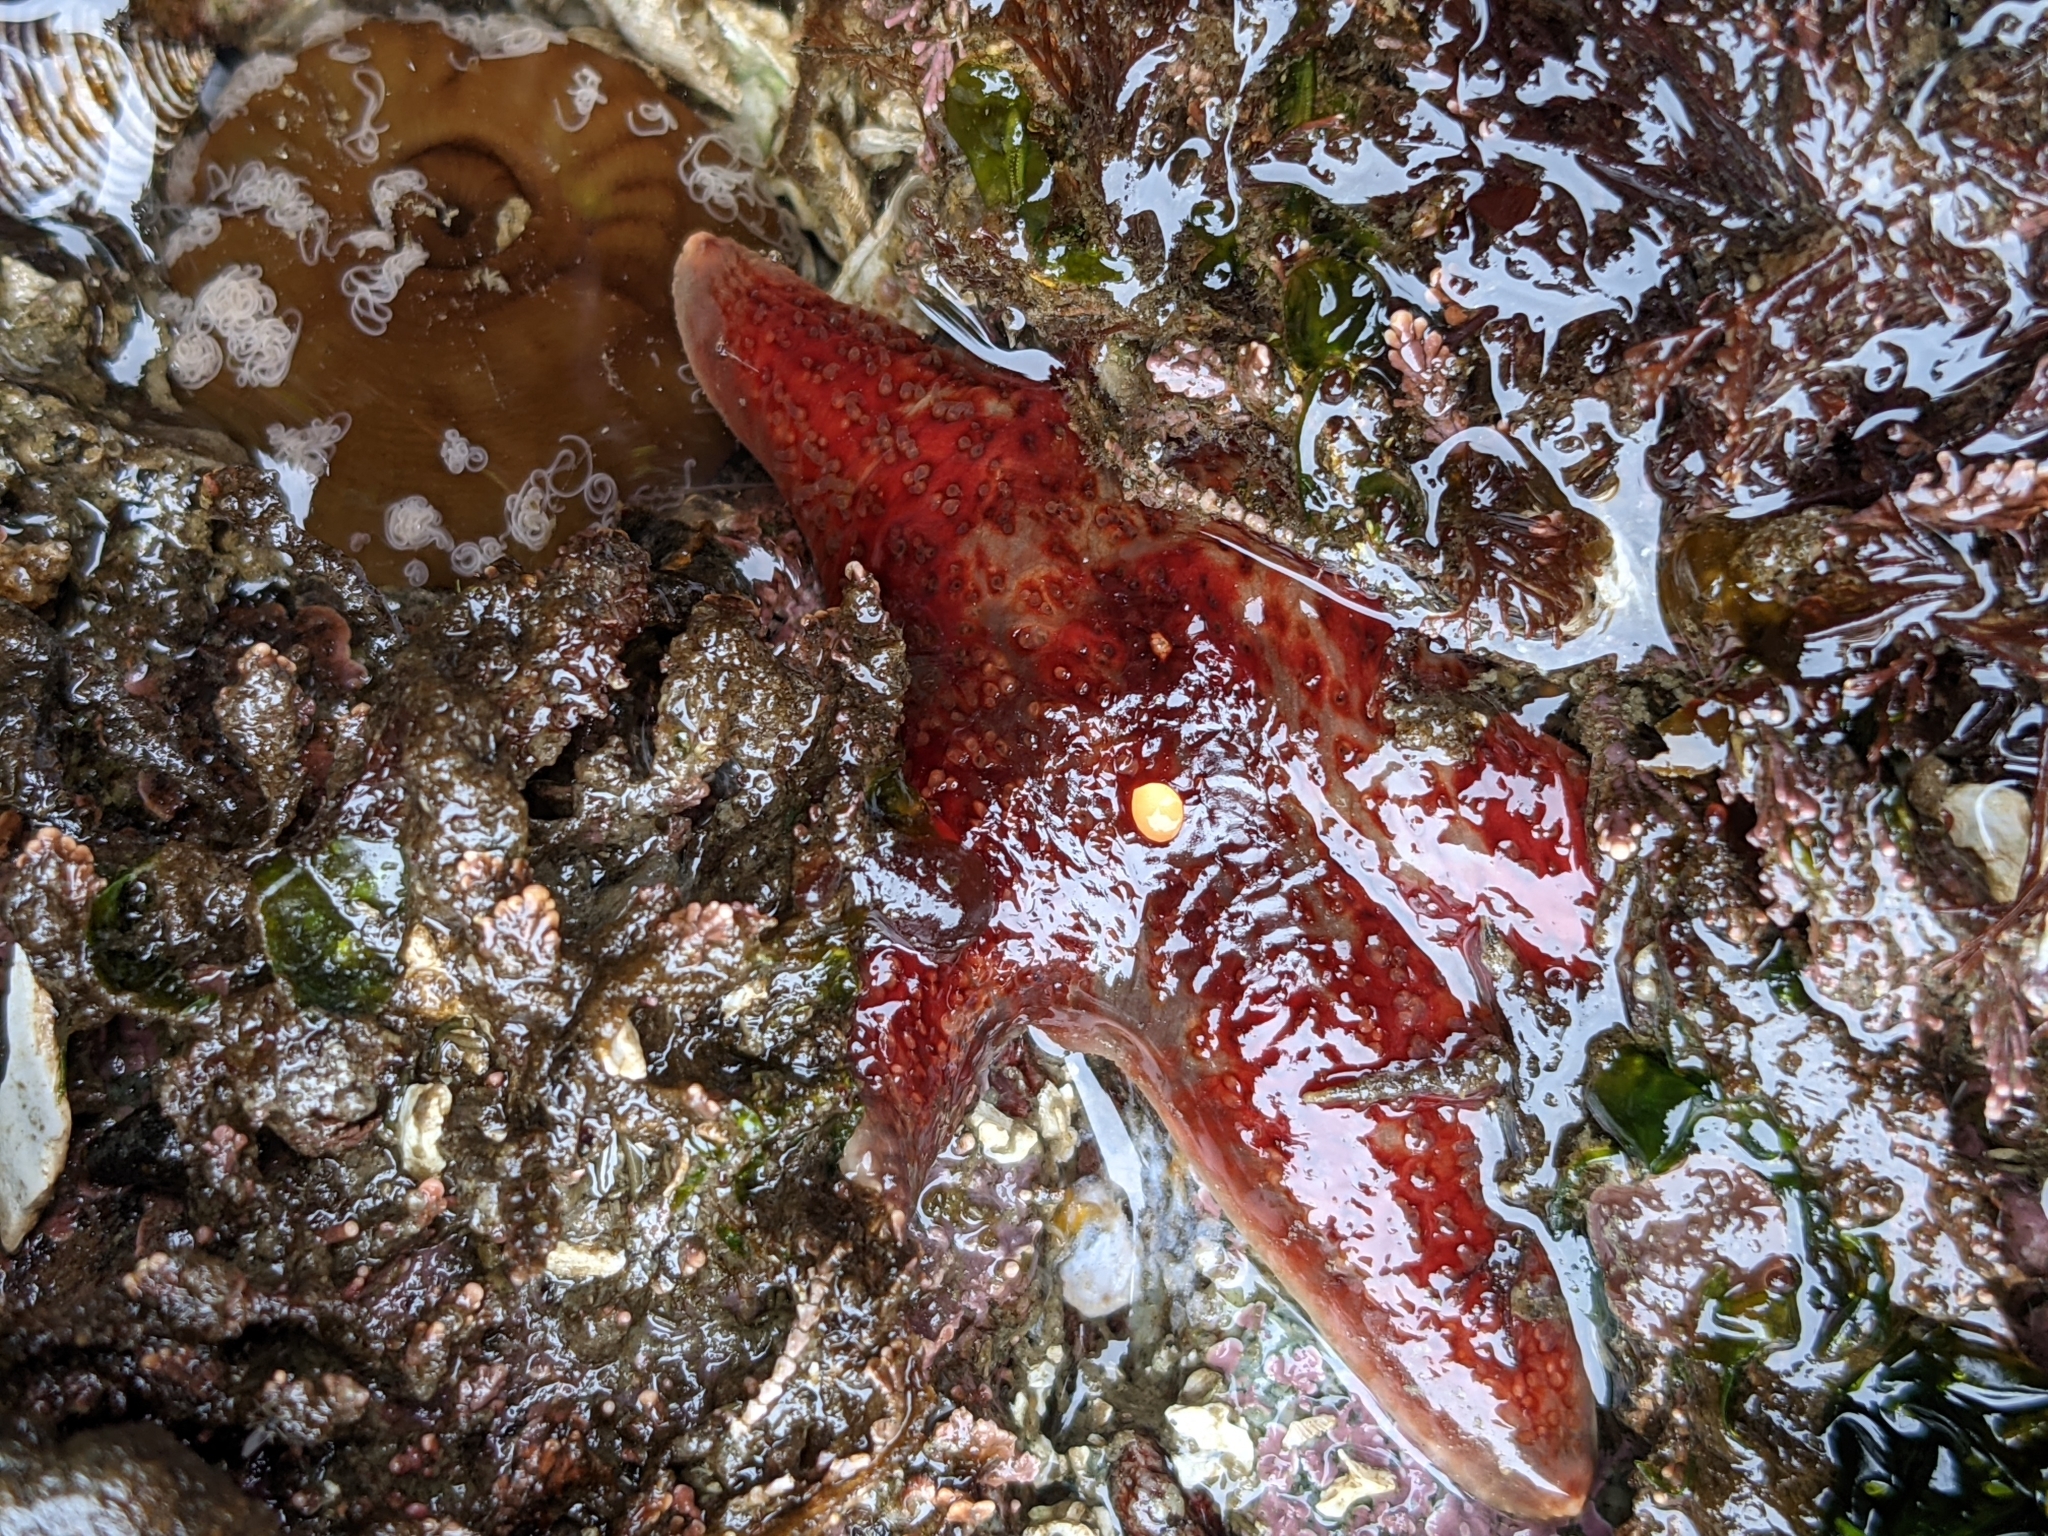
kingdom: Animalia
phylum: Echinodermata
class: Asteroidea
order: Valvatida
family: Asteropseidae
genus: Dermasterias
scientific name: Dermasterias imbricata
